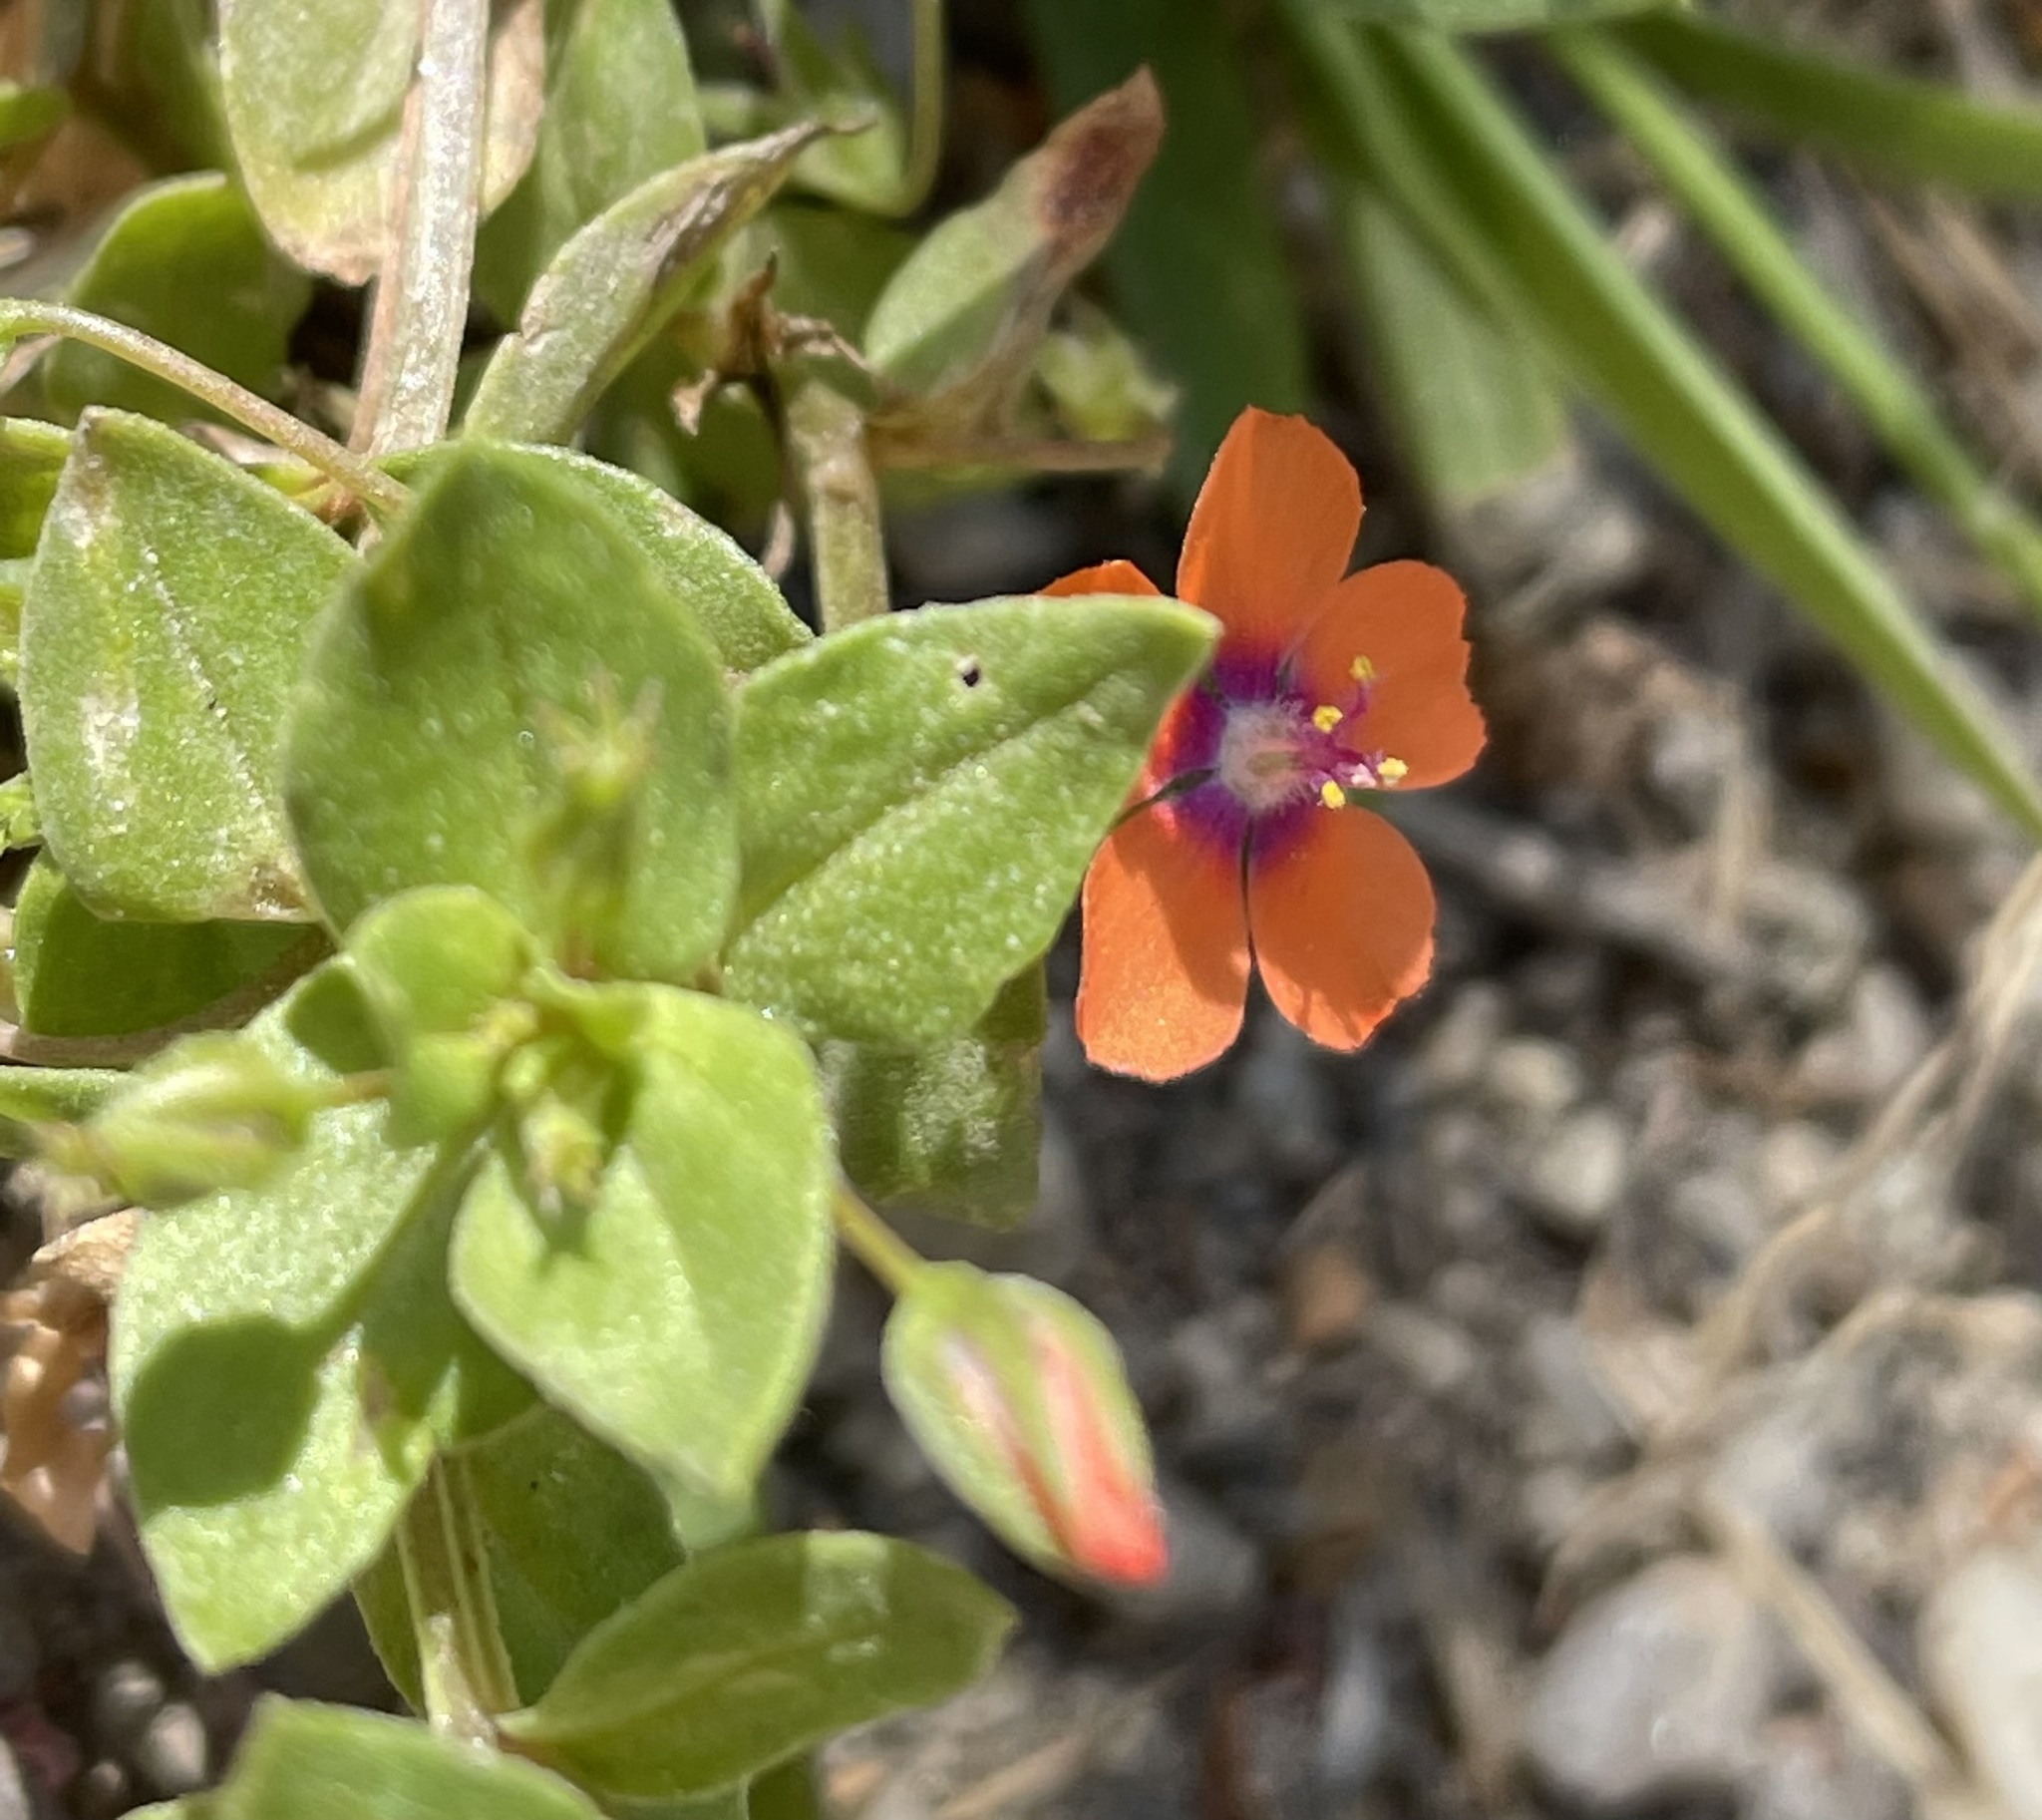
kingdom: Plantae
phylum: Tracheophyta
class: Magnoliopsida
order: Ericales
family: Primulaceae
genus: Lysimachia
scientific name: Lysimachia arvensis
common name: Scarlet pimpernel
